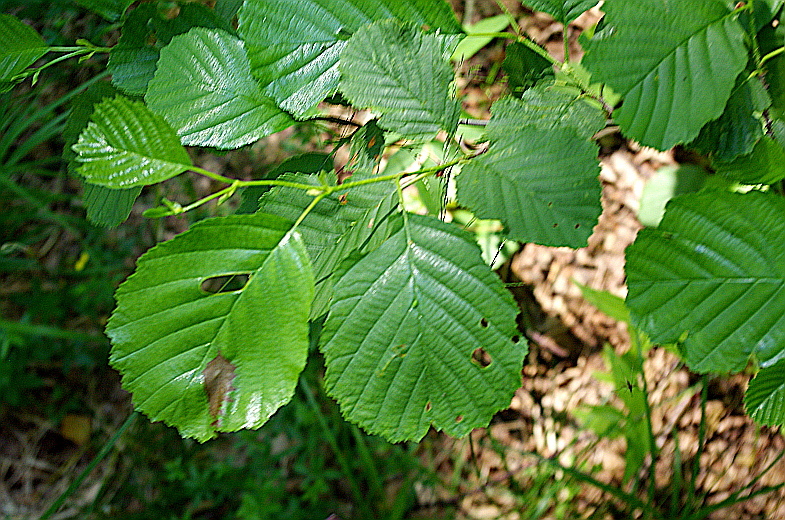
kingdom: Plantae
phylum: Tracheophyta
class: Magnoliopsida
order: Fagales
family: Betulaceae
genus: Alnus
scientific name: Alnus incana
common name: Grey alder
